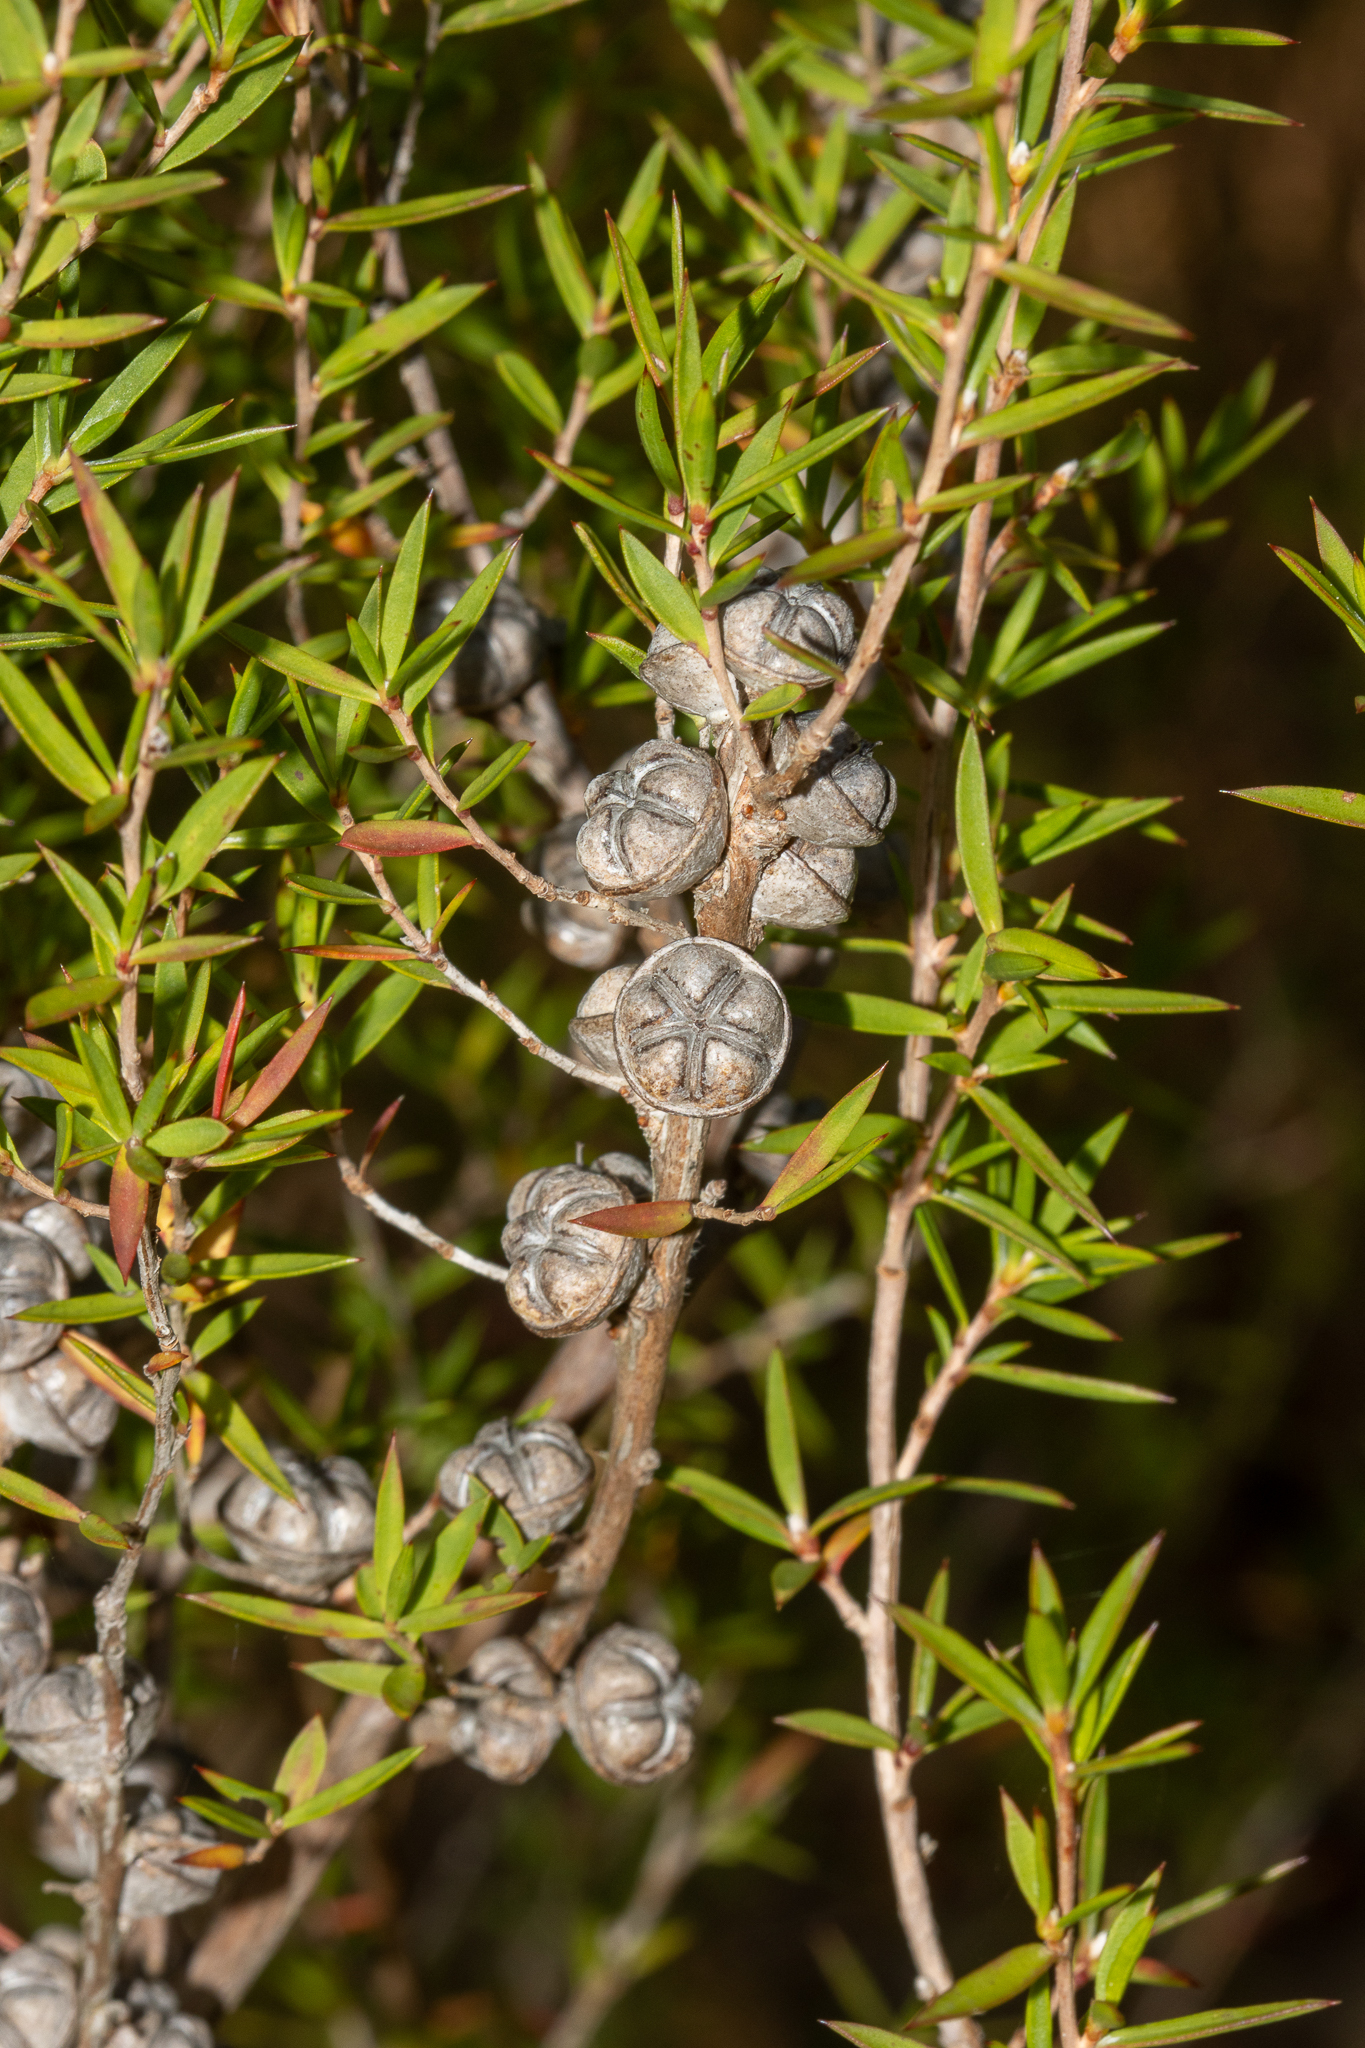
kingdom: Plantae
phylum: Tracheophyta
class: Magnoliopsida
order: Myrtales
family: Myrtaceae
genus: Leptospermum
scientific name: Leptospermum continentale
